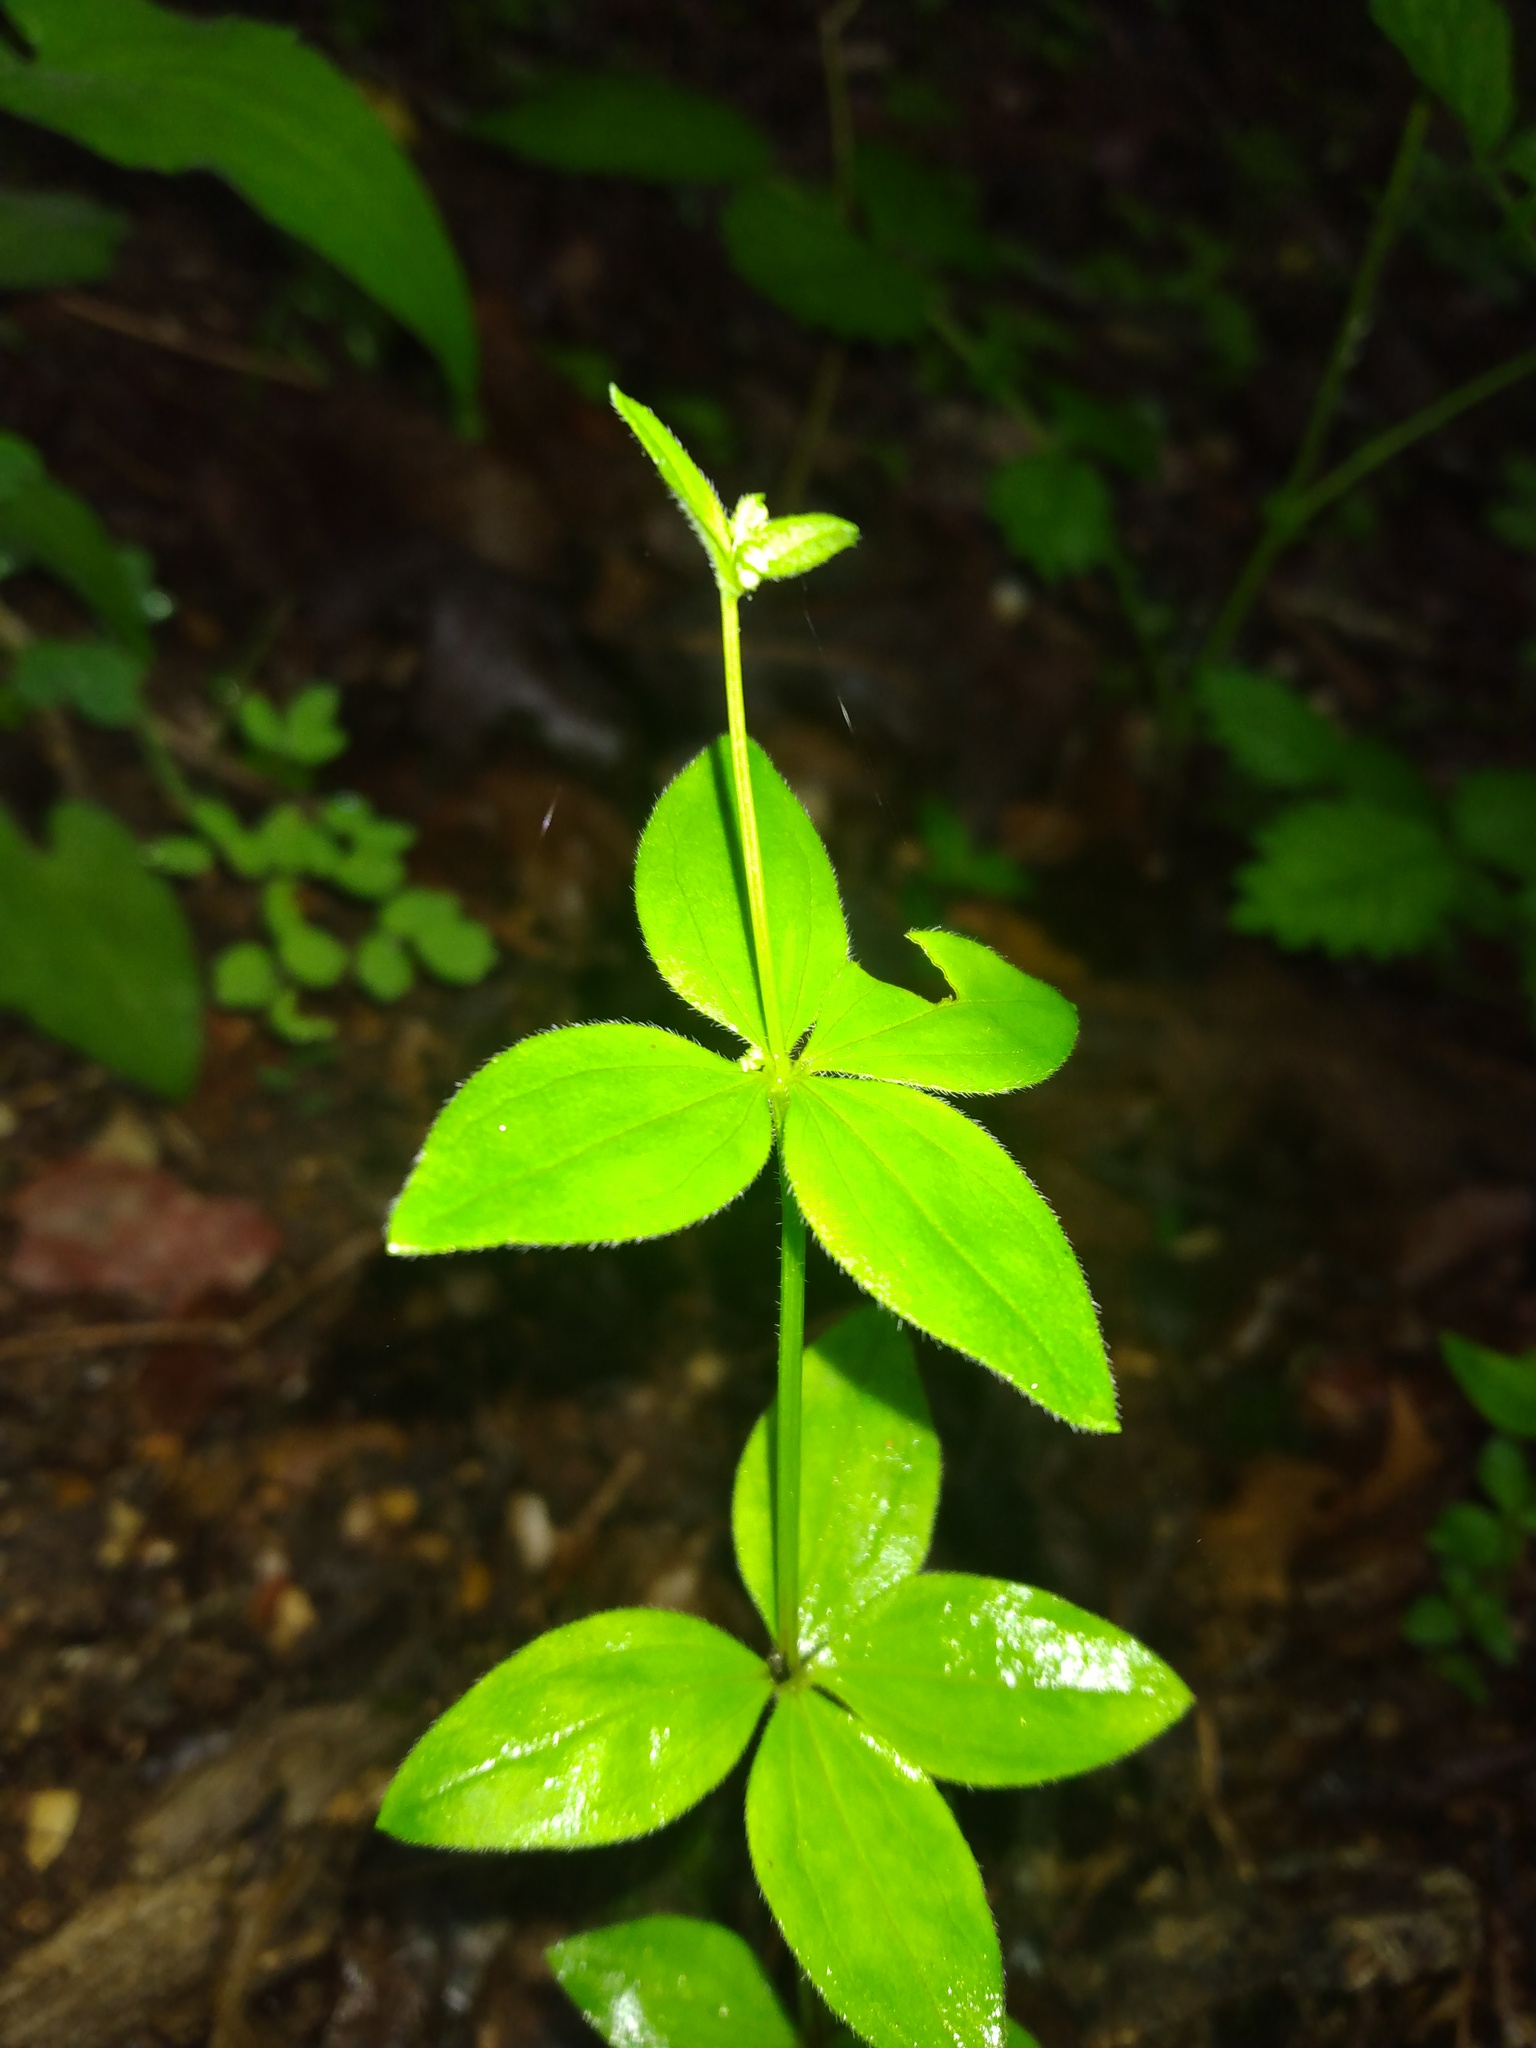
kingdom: Plantae
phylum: Tracheophyta
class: Magnoliopsida
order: Gentianales
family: Rubiaceae
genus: Galium
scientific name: Galium circaezans
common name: Forest bedstraw
